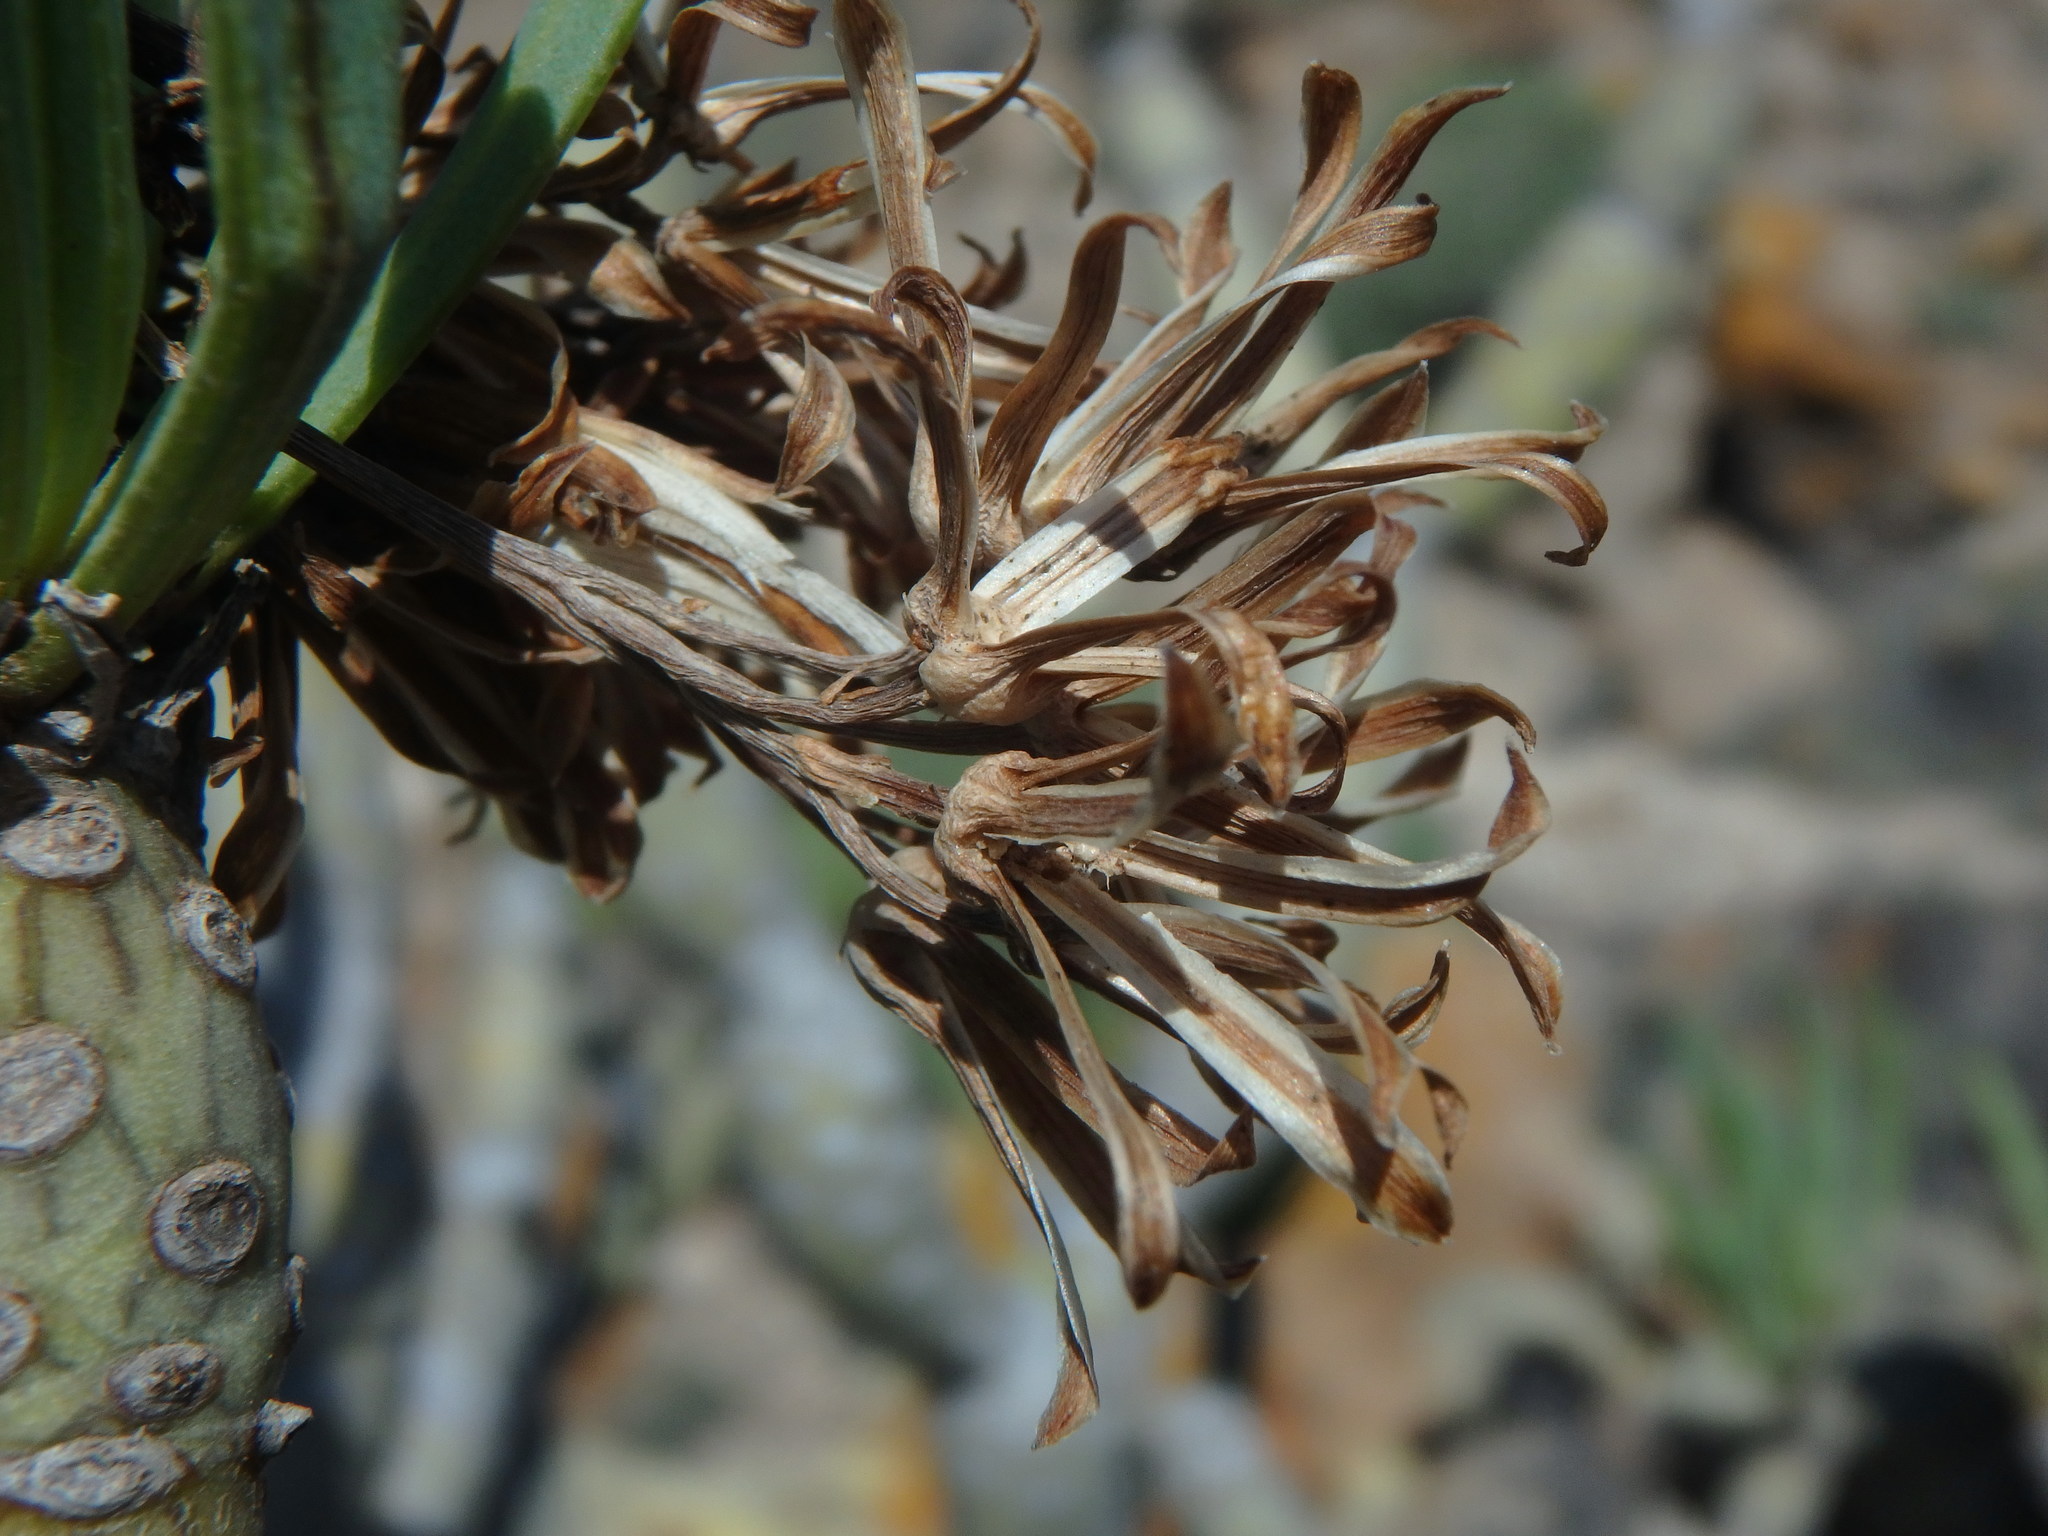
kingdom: Plantae
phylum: Tracheophyta
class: Magnoliopsida
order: Asterales
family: Asteraceae
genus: Kleinia
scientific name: Kleinia neriifolia
